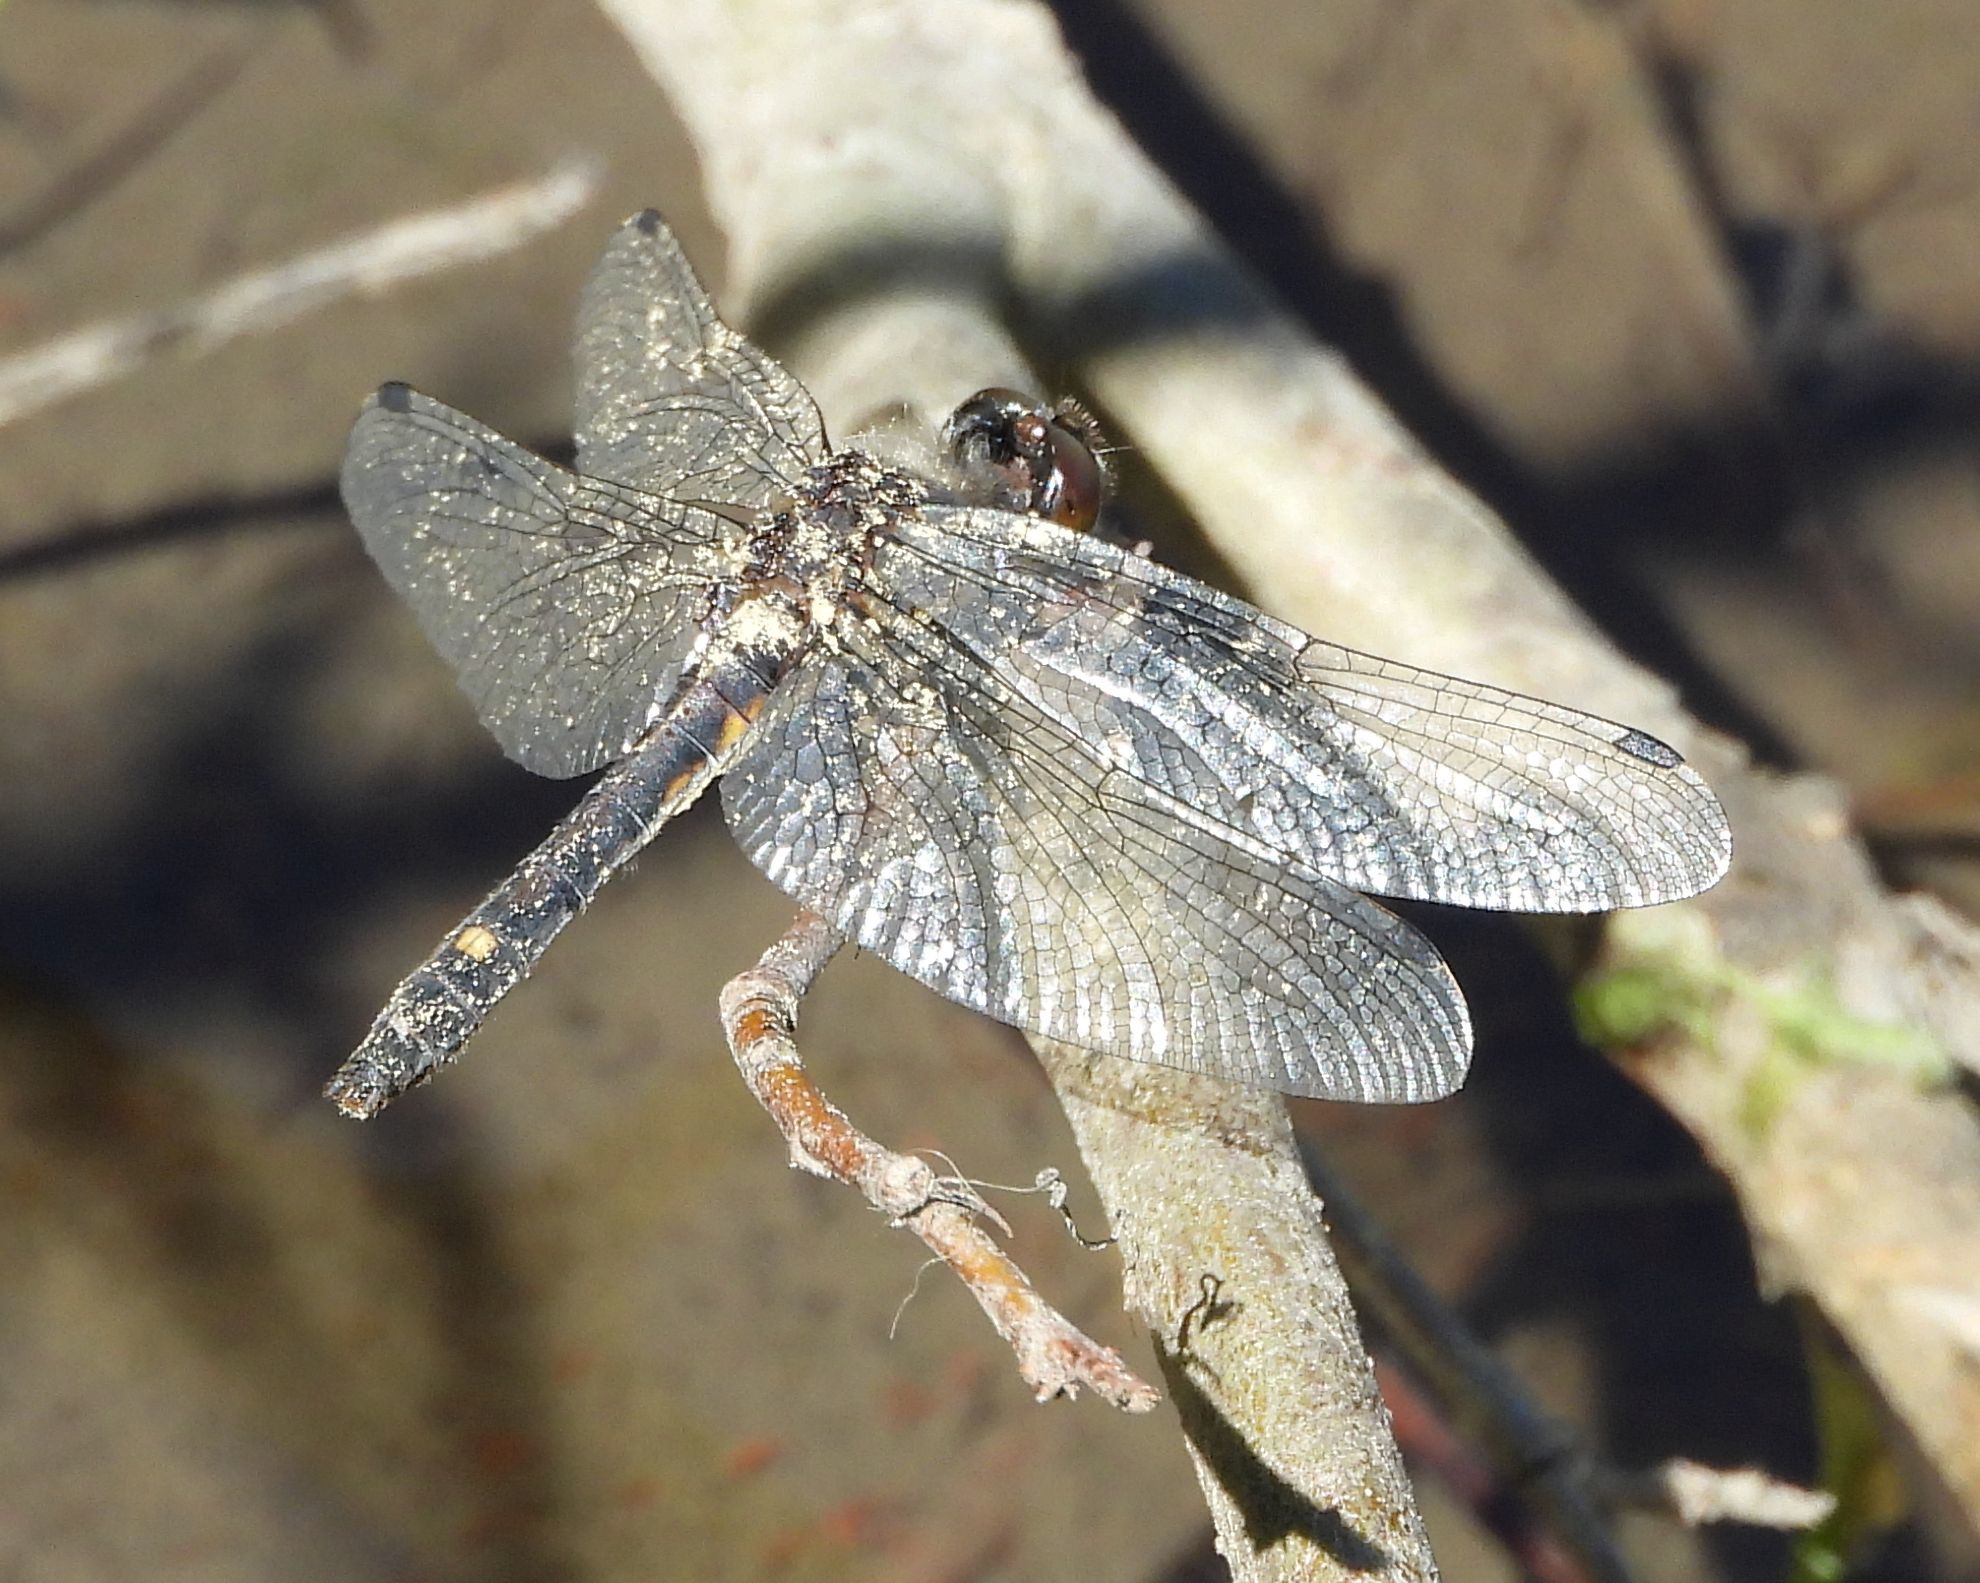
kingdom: Animalia
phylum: Arthropoda
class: Insecta
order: Odonata
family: Libellulidae
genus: Leucorrhinia
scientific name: Leucorrhinia intacta
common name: Dot-tailed whiteface
